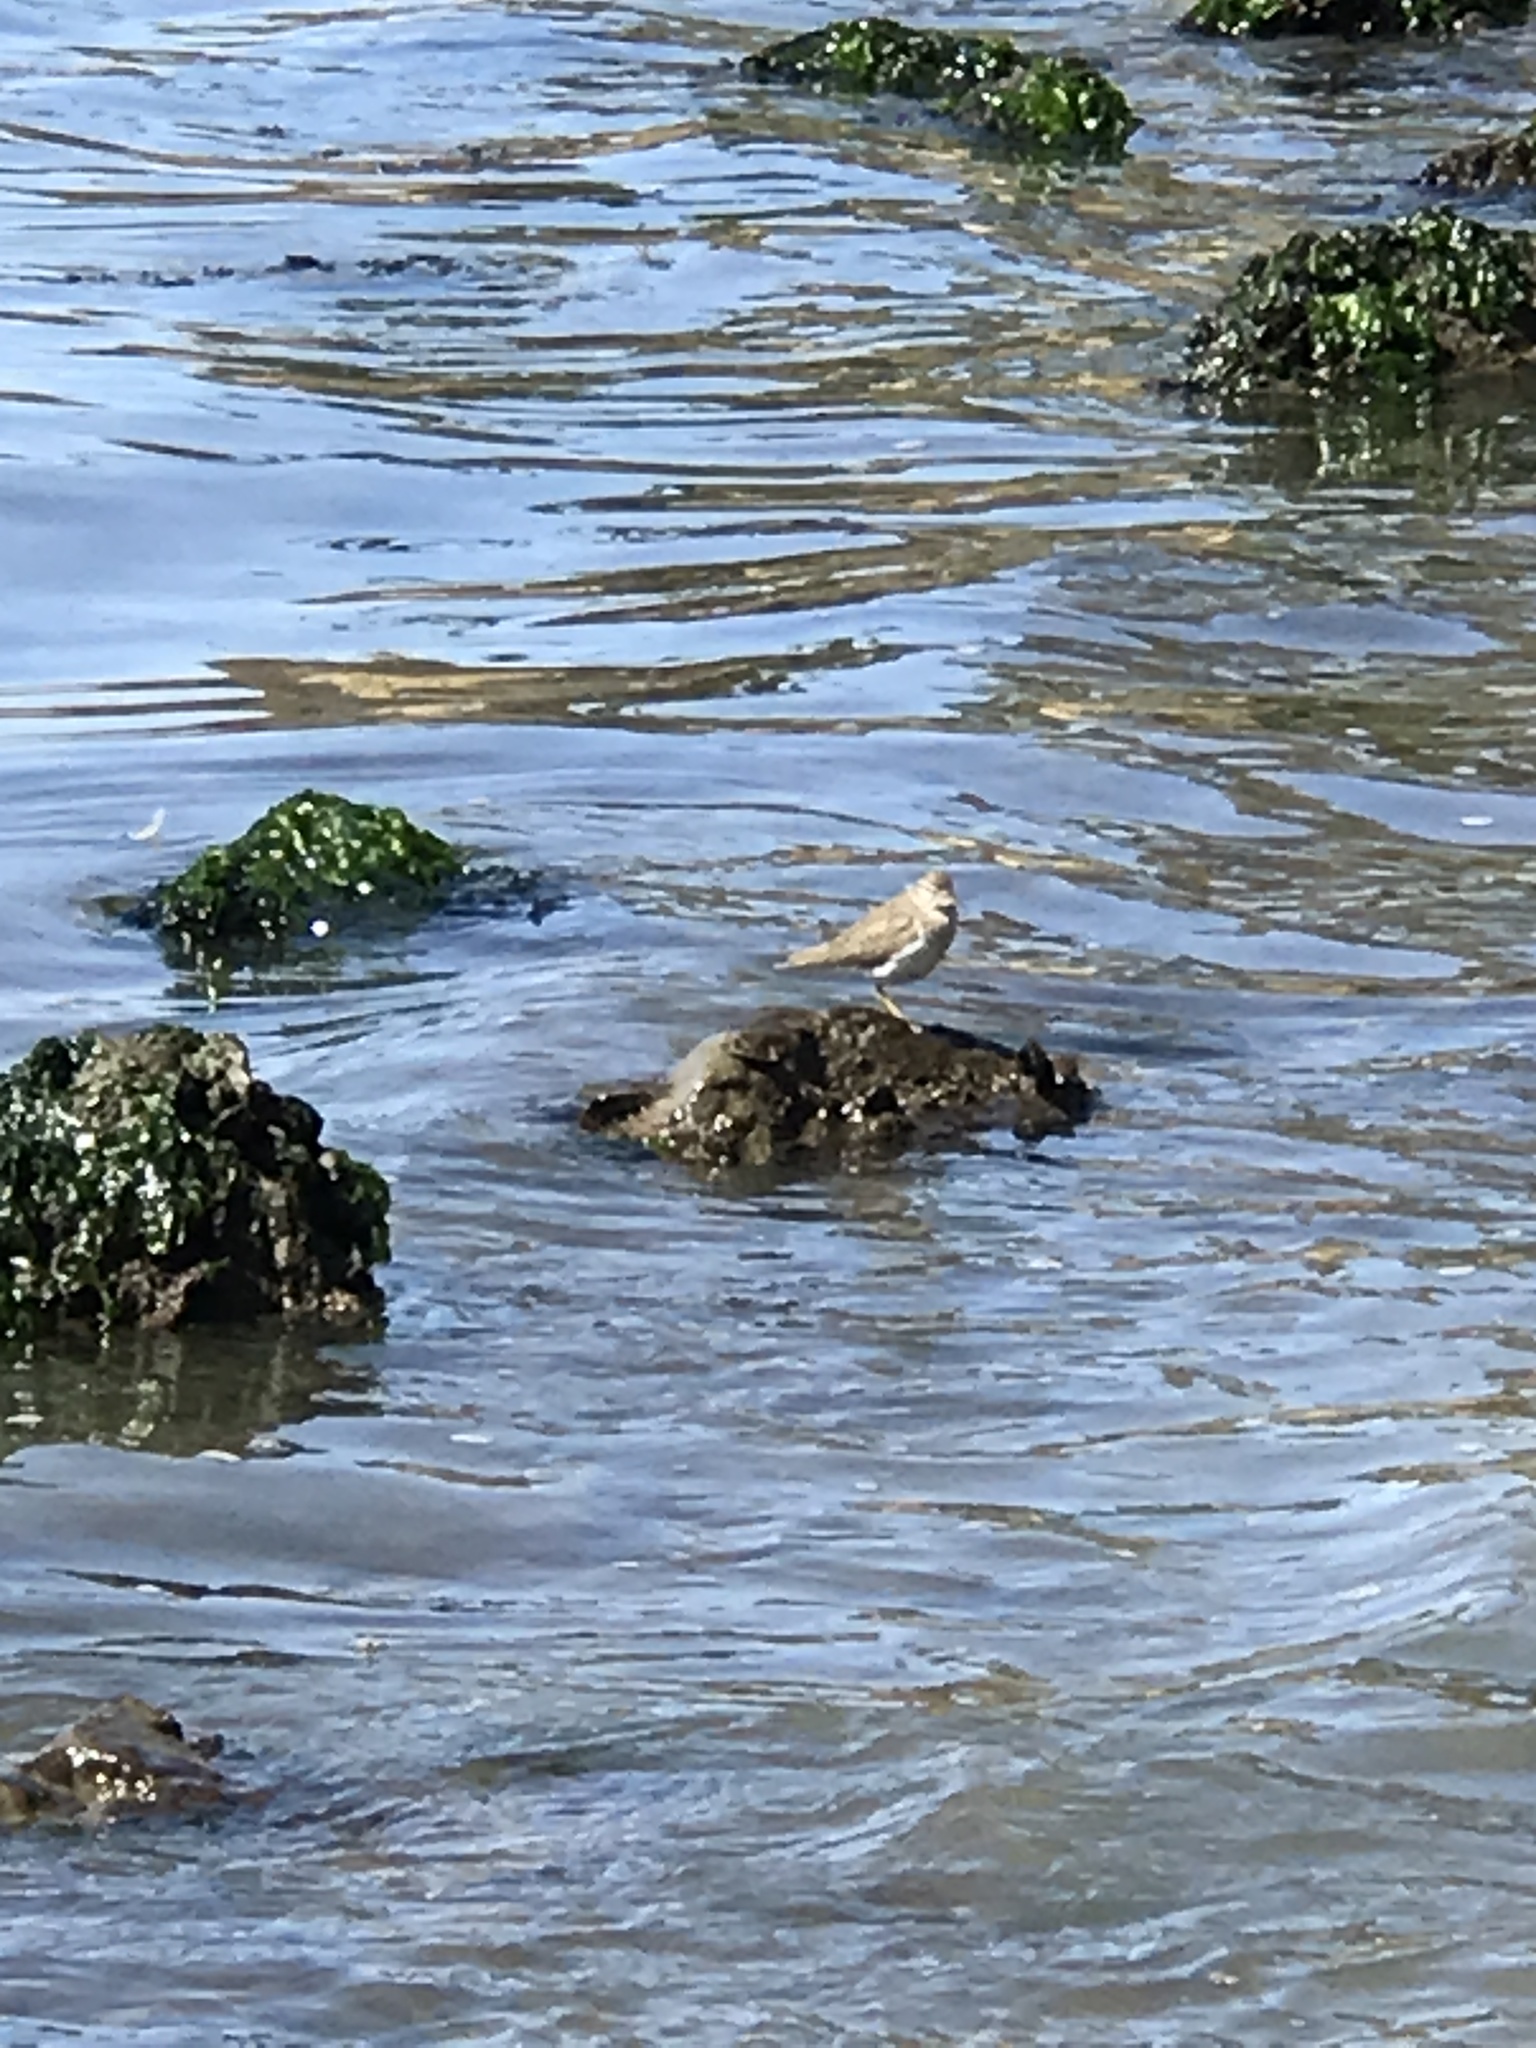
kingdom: Animalia
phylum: Chordata
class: Aves
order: Charadriiformes
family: Scolopacidae
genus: Actitis
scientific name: Actitis macularius
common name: Spotted sandpiper
